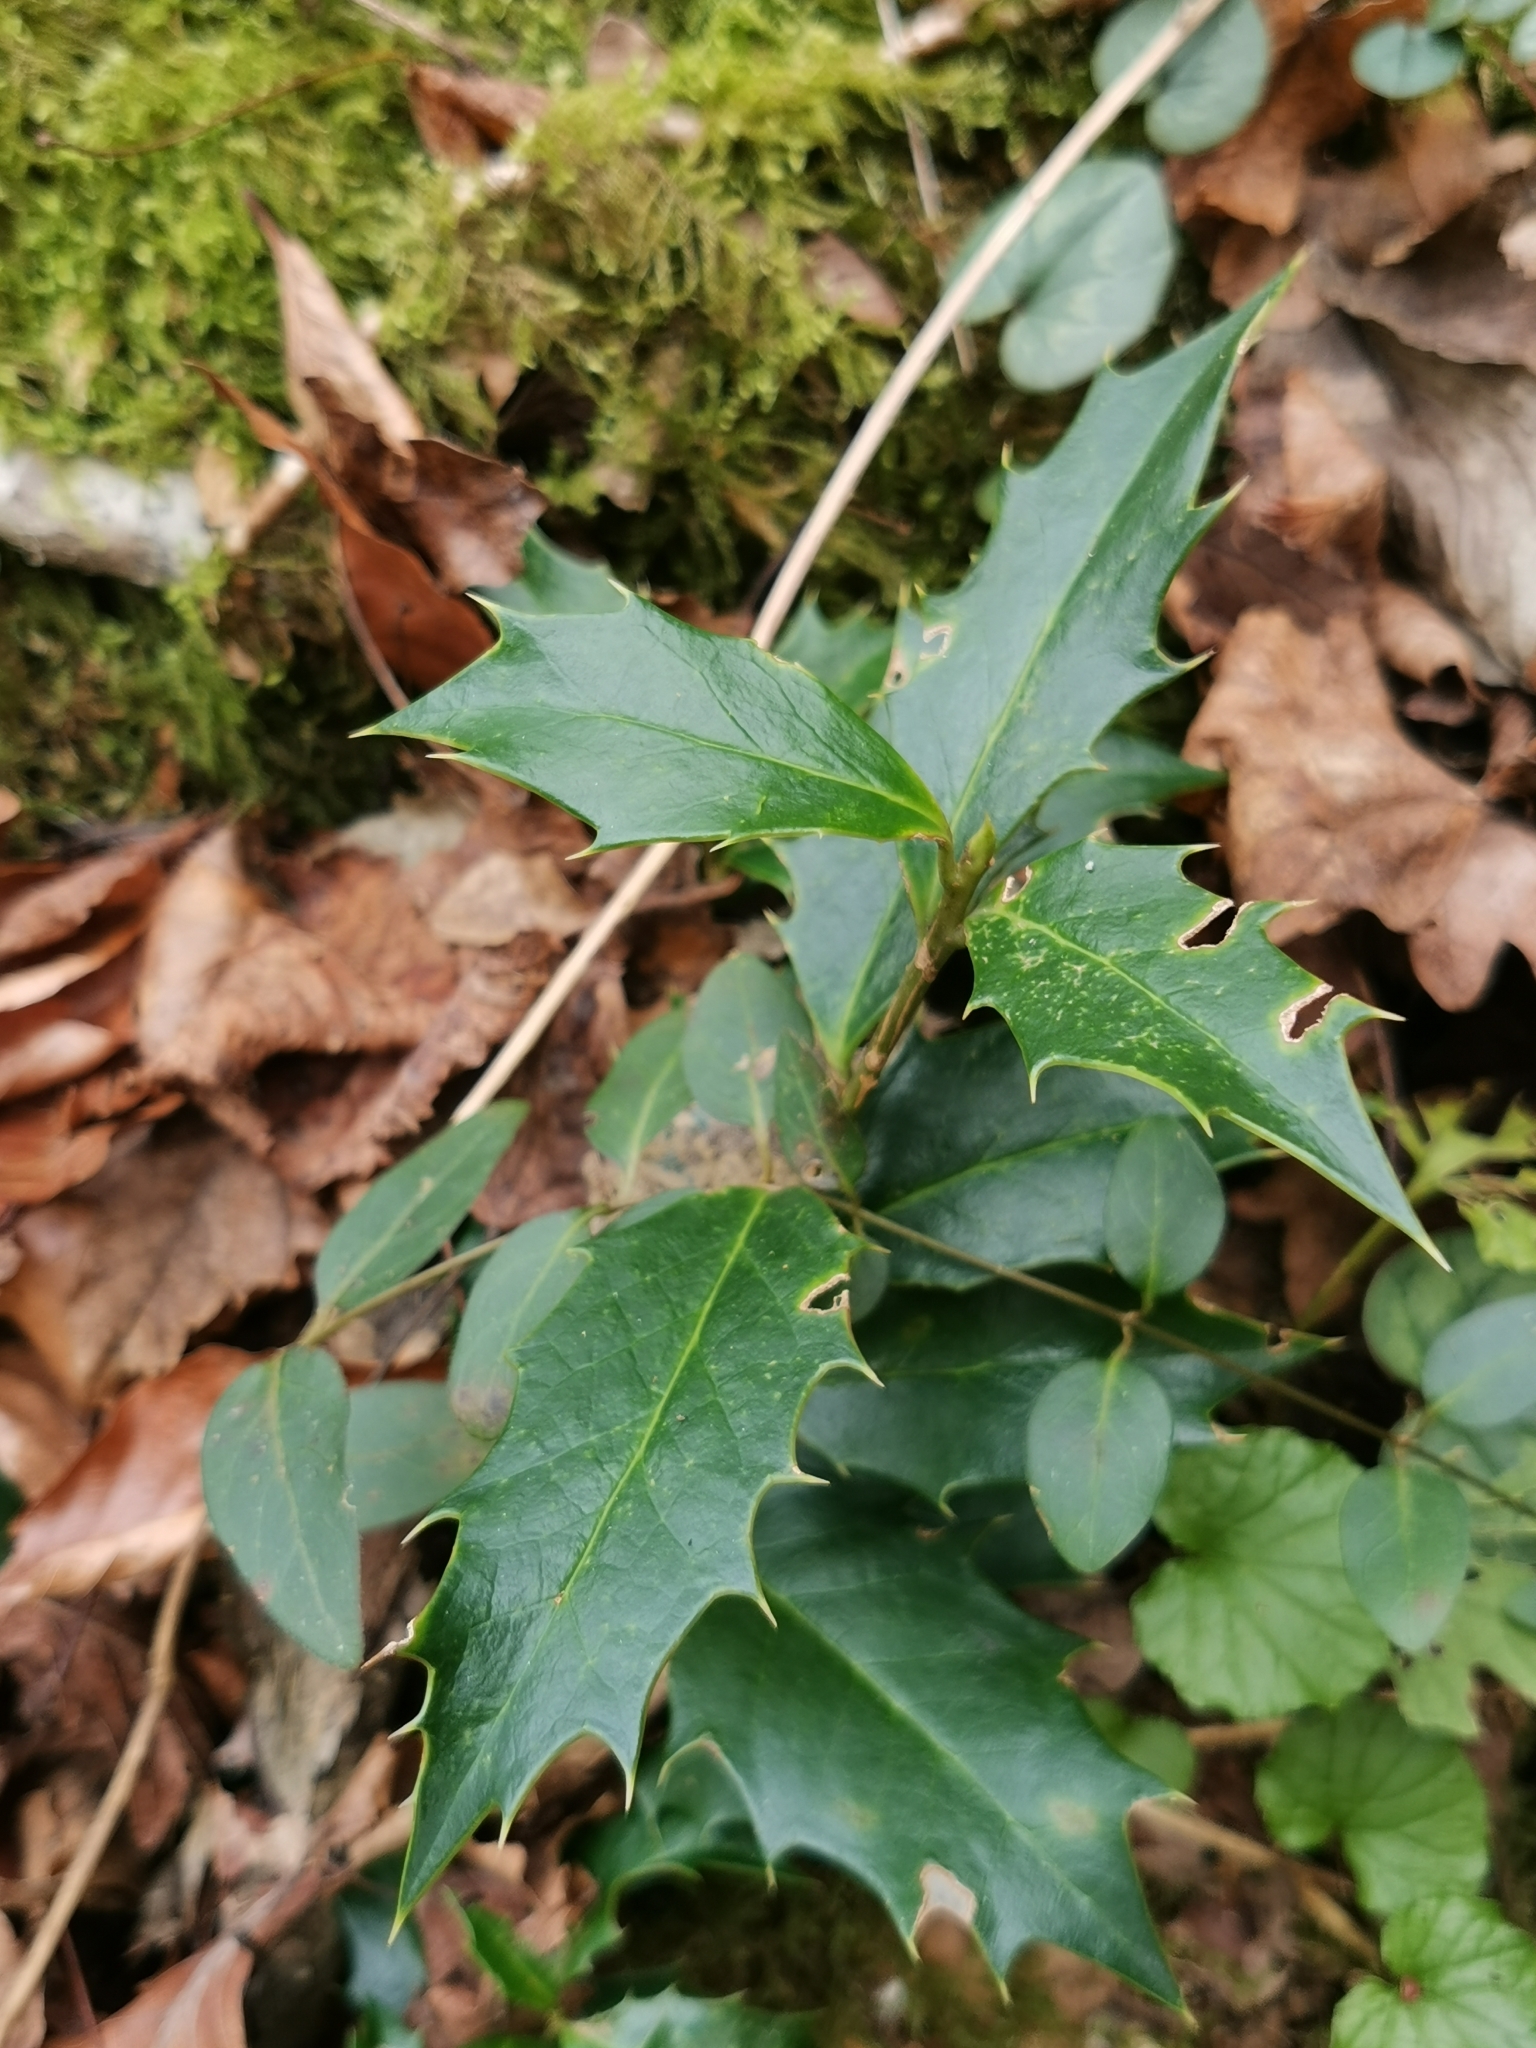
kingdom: Plantae
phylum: Tracheophyta
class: Magnoliopsida
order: Aquifoliales
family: Aquifoliaceae
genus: Ilex
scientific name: Ilex colchica
